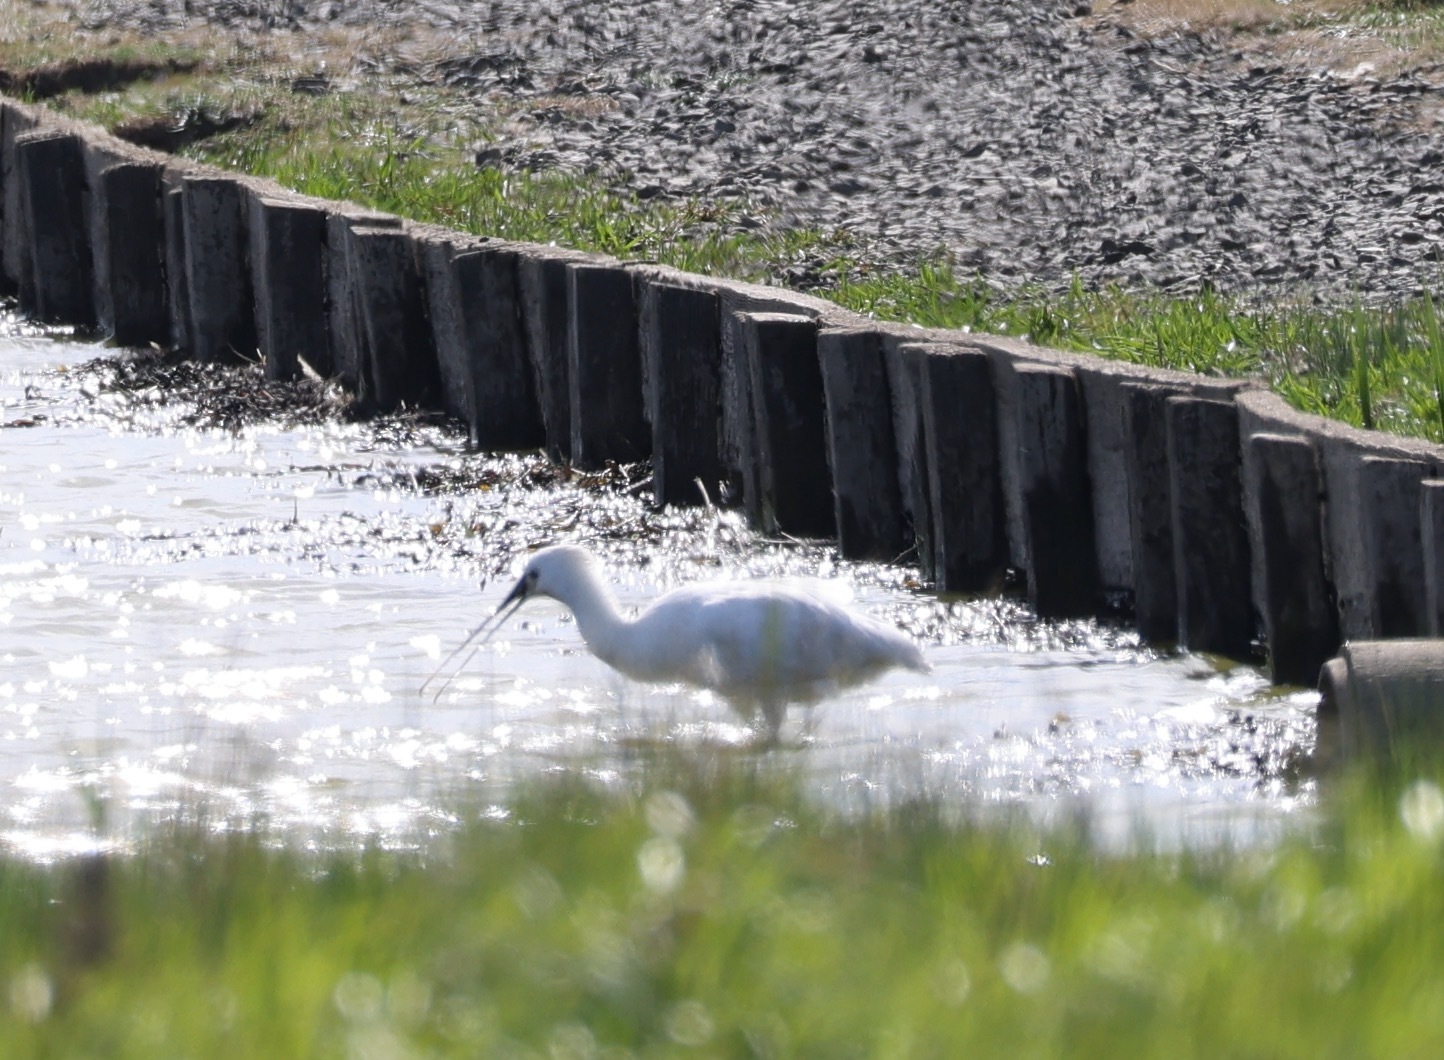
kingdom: Animalia
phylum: Chordata
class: Aves
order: Pelecaniformes
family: Threskiornithidae
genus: Platalea
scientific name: Platalea leucorodia
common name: Eurasian spoonbill
